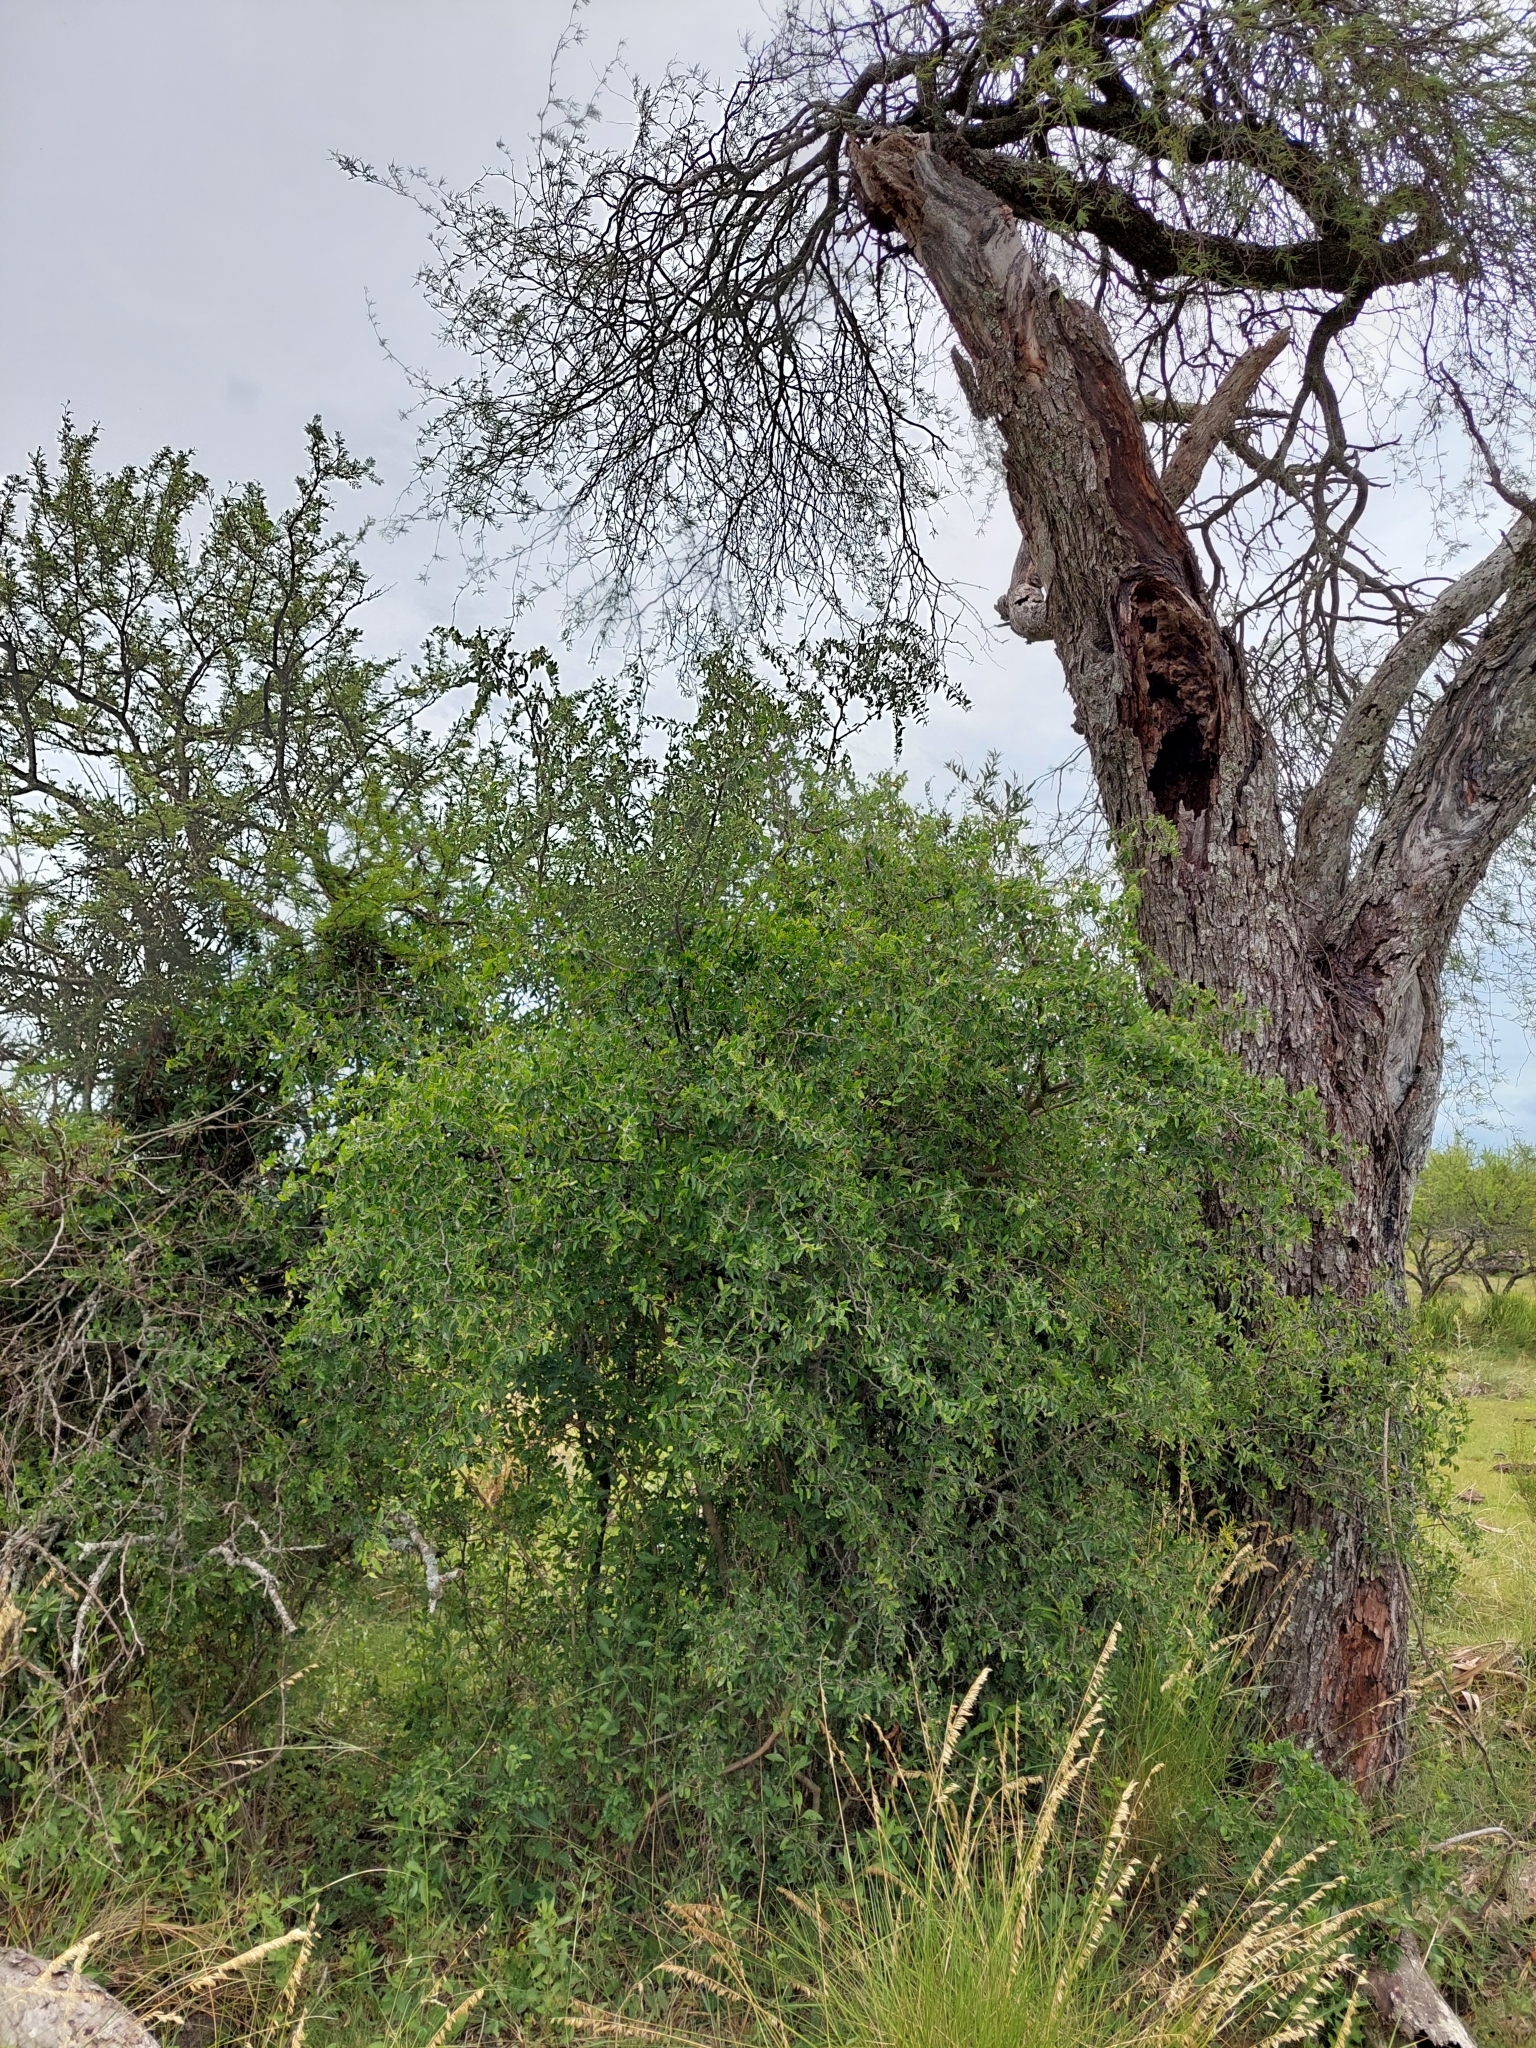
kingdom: Plantae
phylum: Tracheophyta
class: Magnoliopsida
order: Rosales
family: Cannabaceae
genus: Celtis
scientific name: Celtis tala
